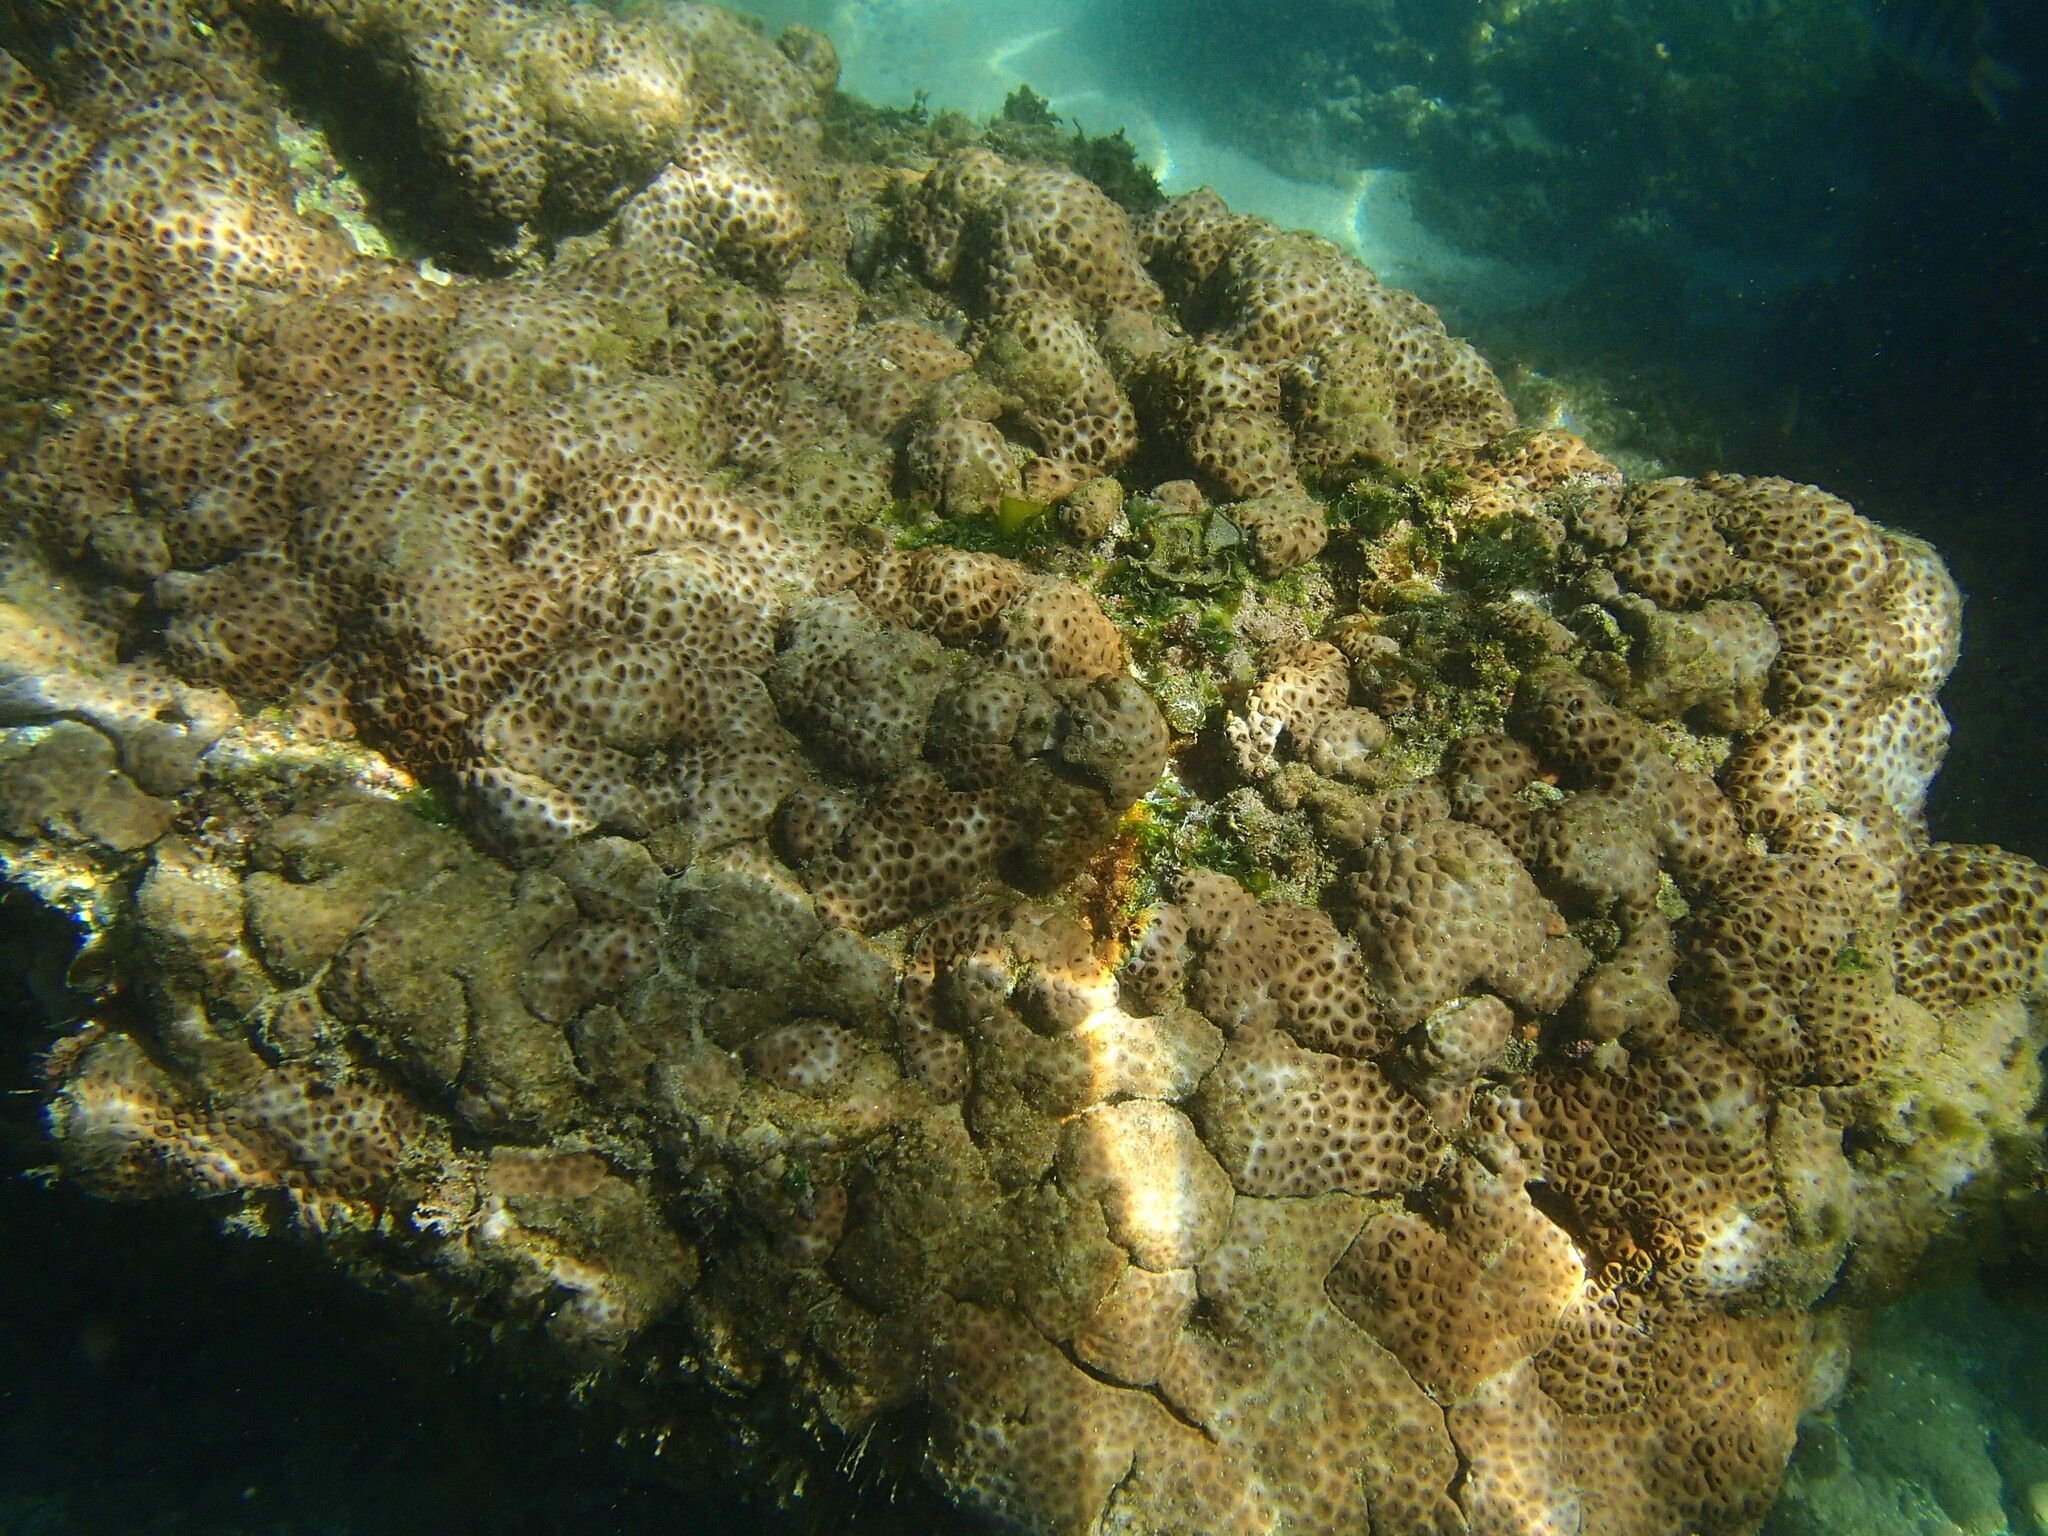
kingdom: Animalia
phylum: Cnidaria
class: Anthozoa
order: Zoantharia
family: Sphenopidae
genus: Palythoa
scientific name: Palythoa tuberculosa
